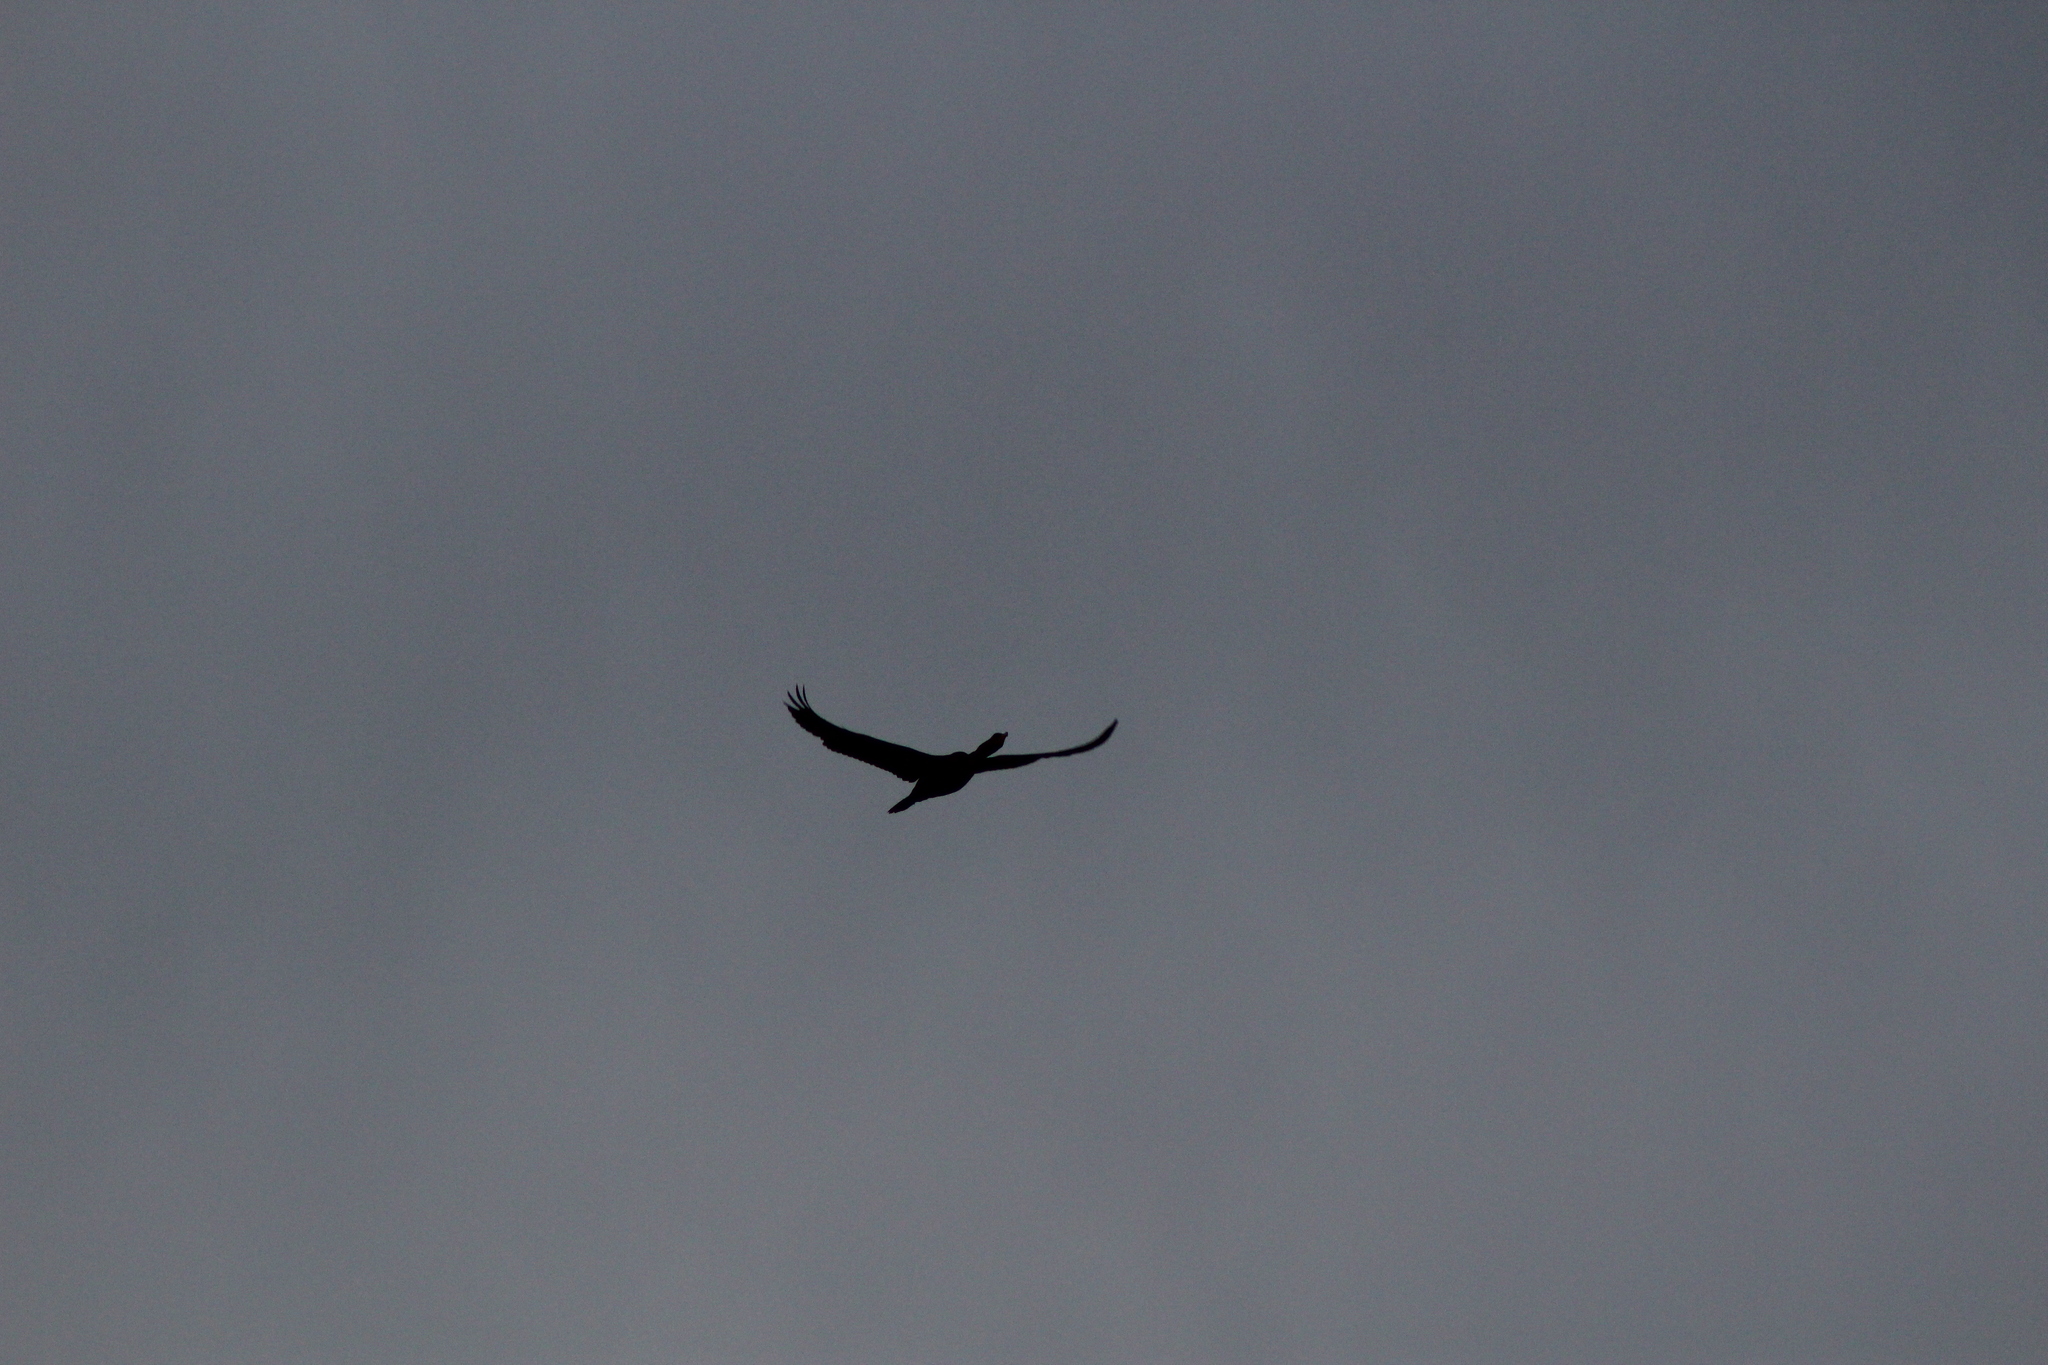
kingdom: Animalia
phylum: Chordata
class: Aves
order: Suliformes
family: Phalacrocoracidae
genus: Phalacrocorax
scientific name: Phalacrocorax auritus
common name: Double-crested cormorant
